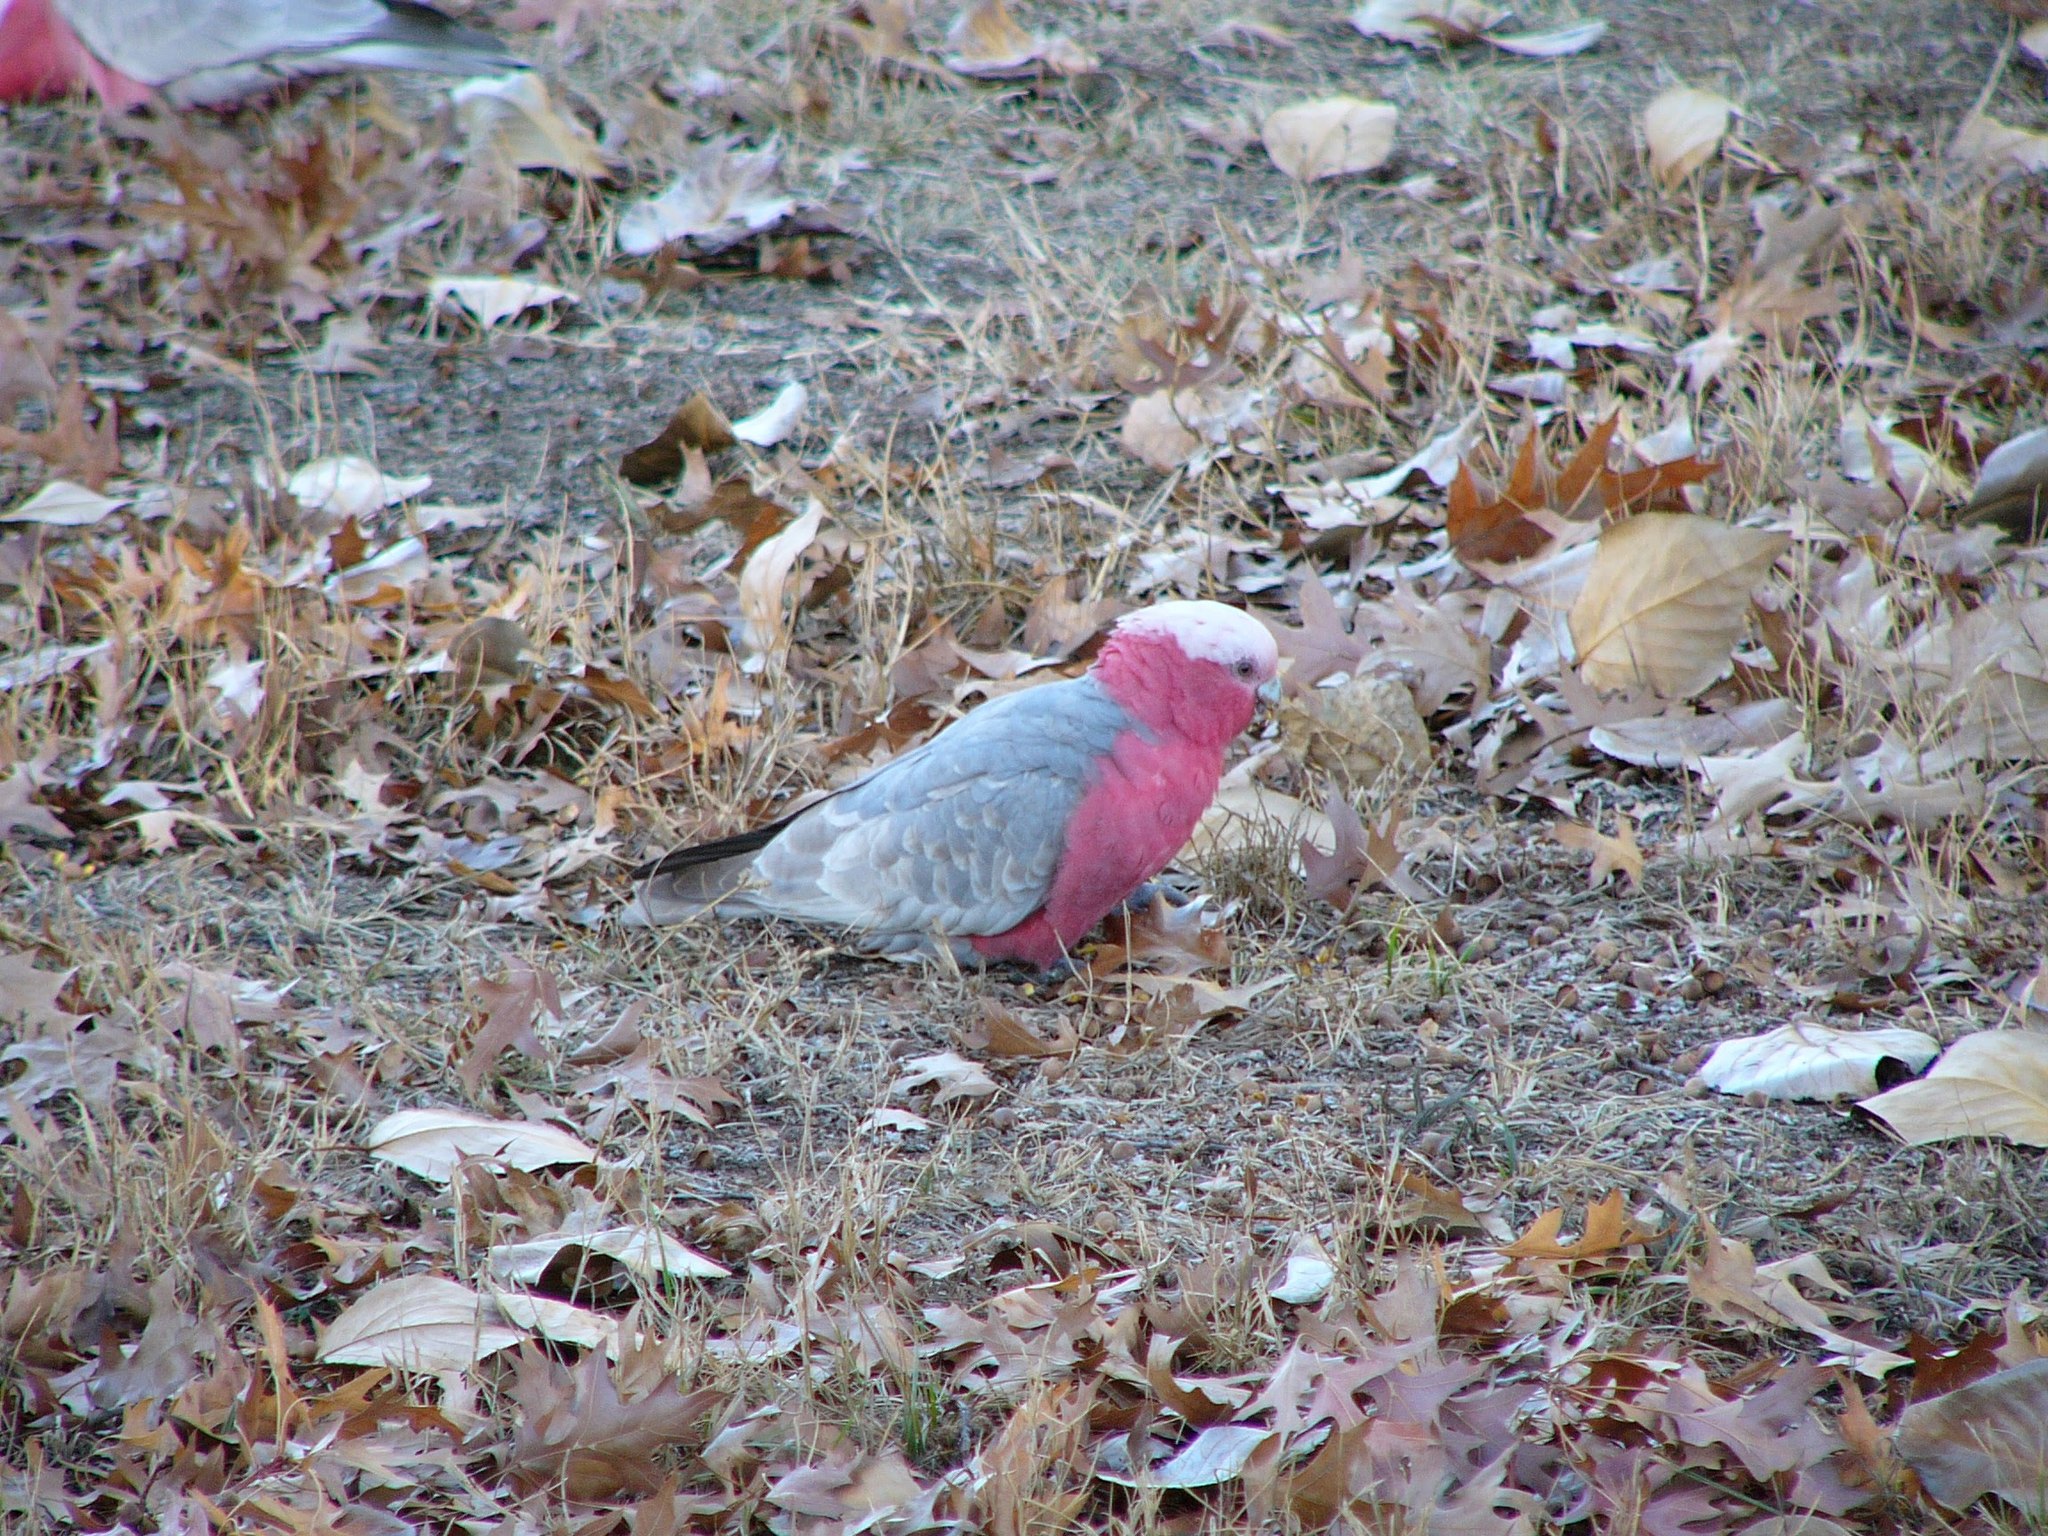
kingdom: Animalia
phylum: Chordata
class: Aves
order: Psittaciformes
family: Psittacidae
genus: Eolophus
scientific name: Eolophus roseicapilla
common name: Galah
